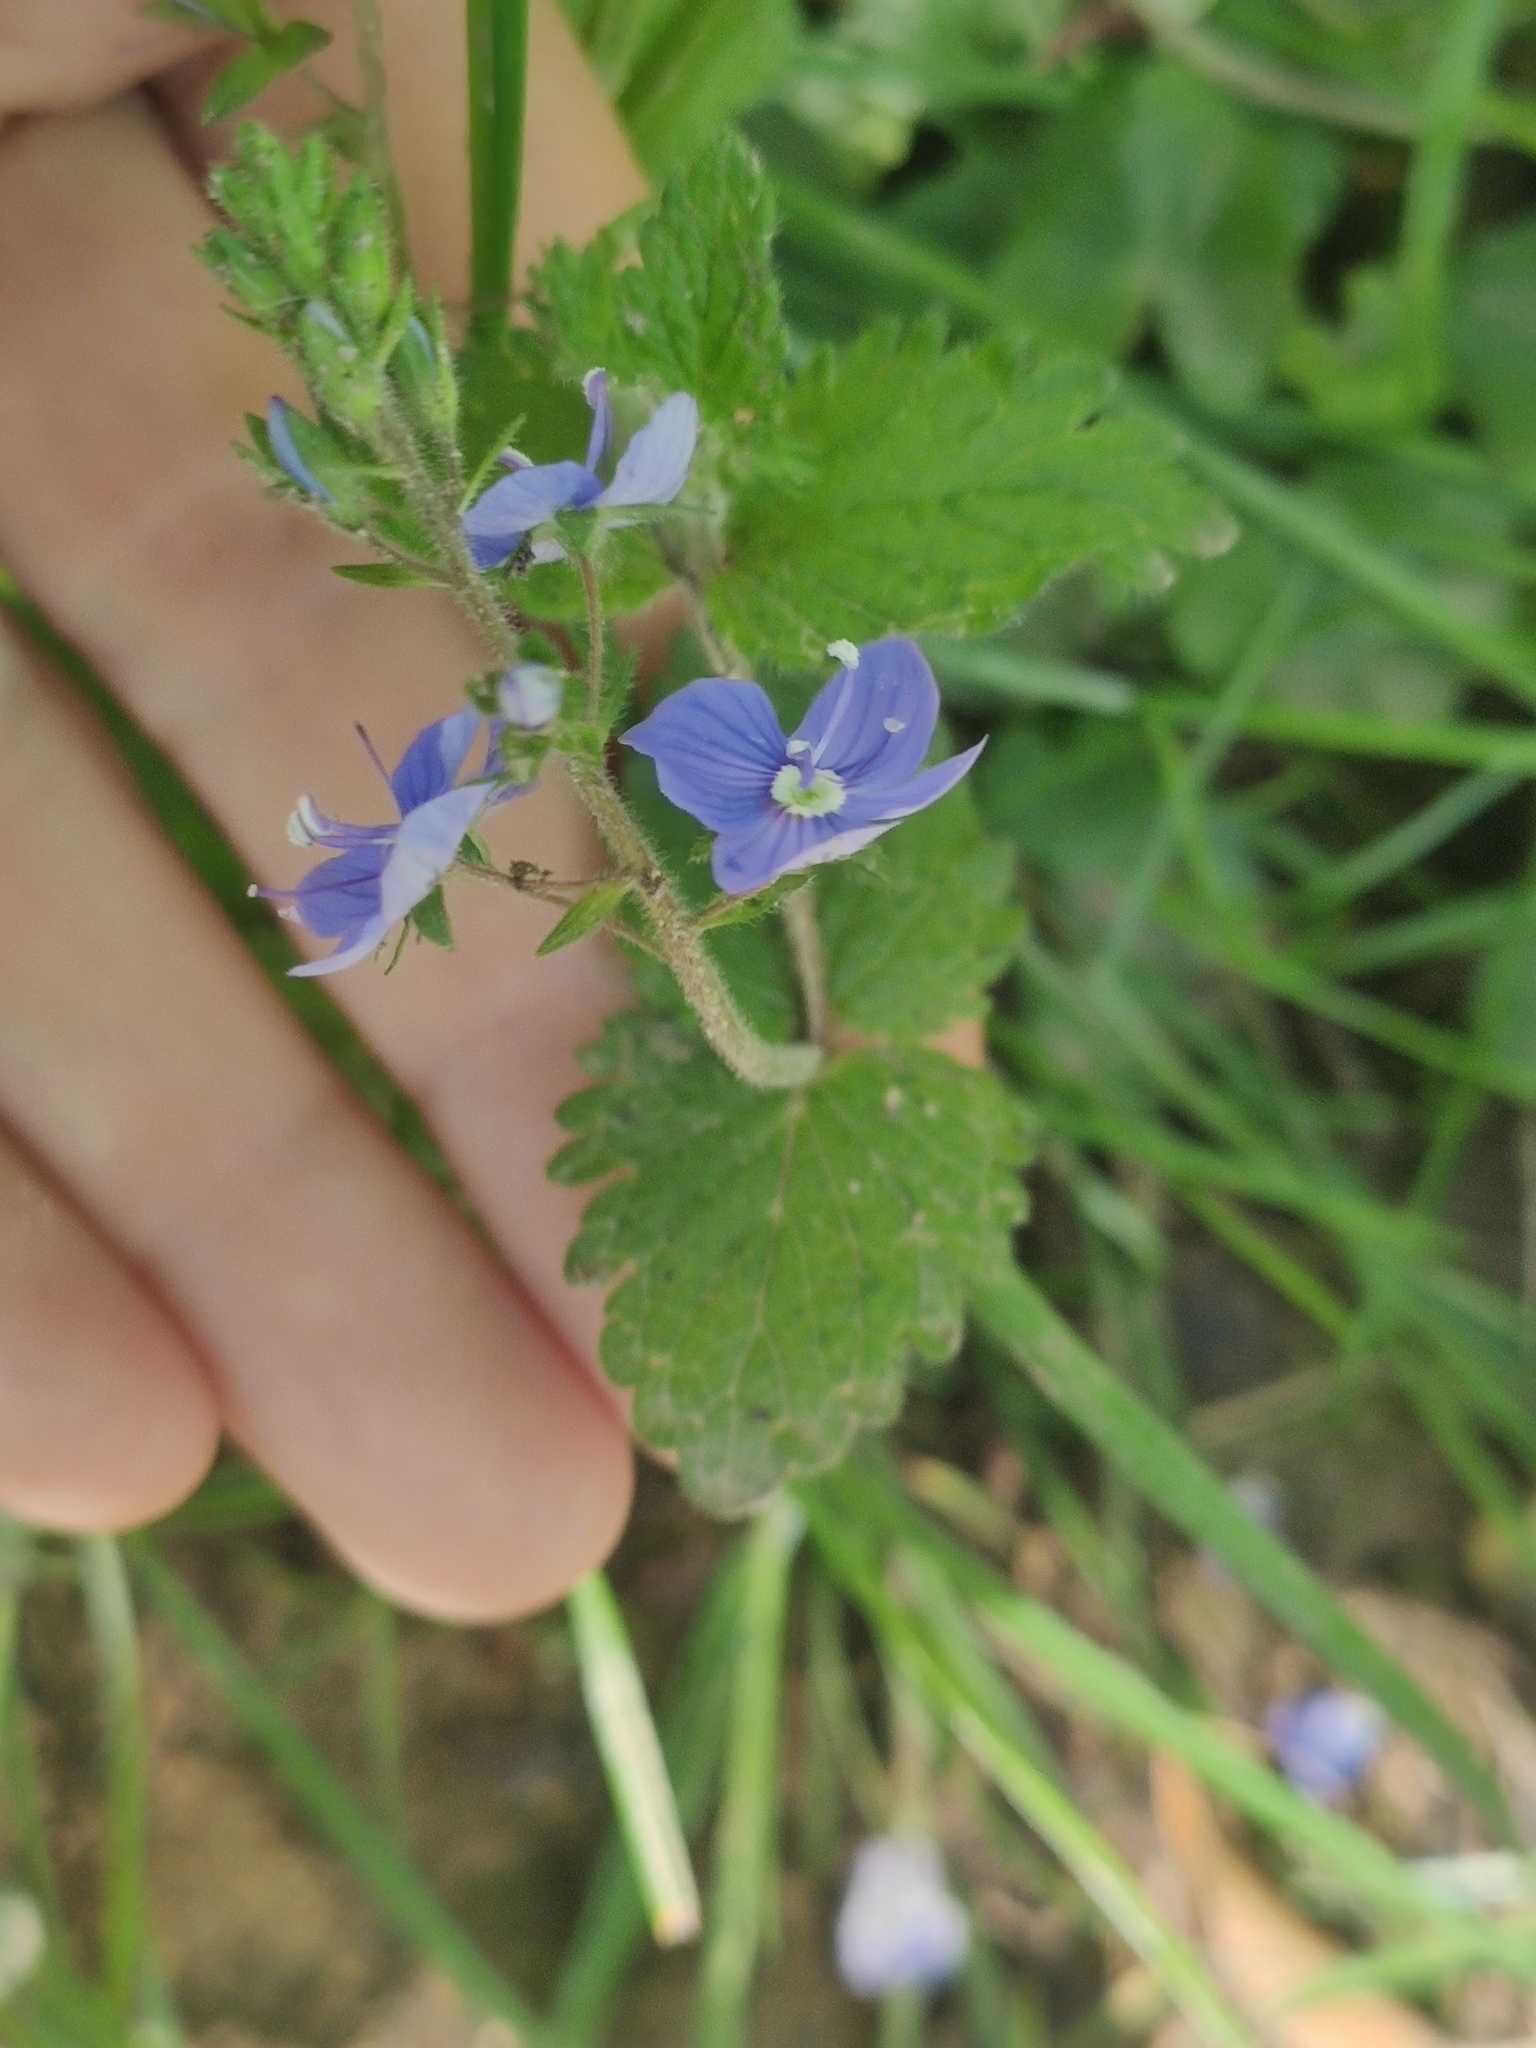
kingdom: Plantae
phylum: Tracheophyta
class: Magnoliopsida
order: Lamiales
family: Plantaginaceae
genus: Veronica
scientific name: Veronica chamaedrys
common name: Germander speedwell
